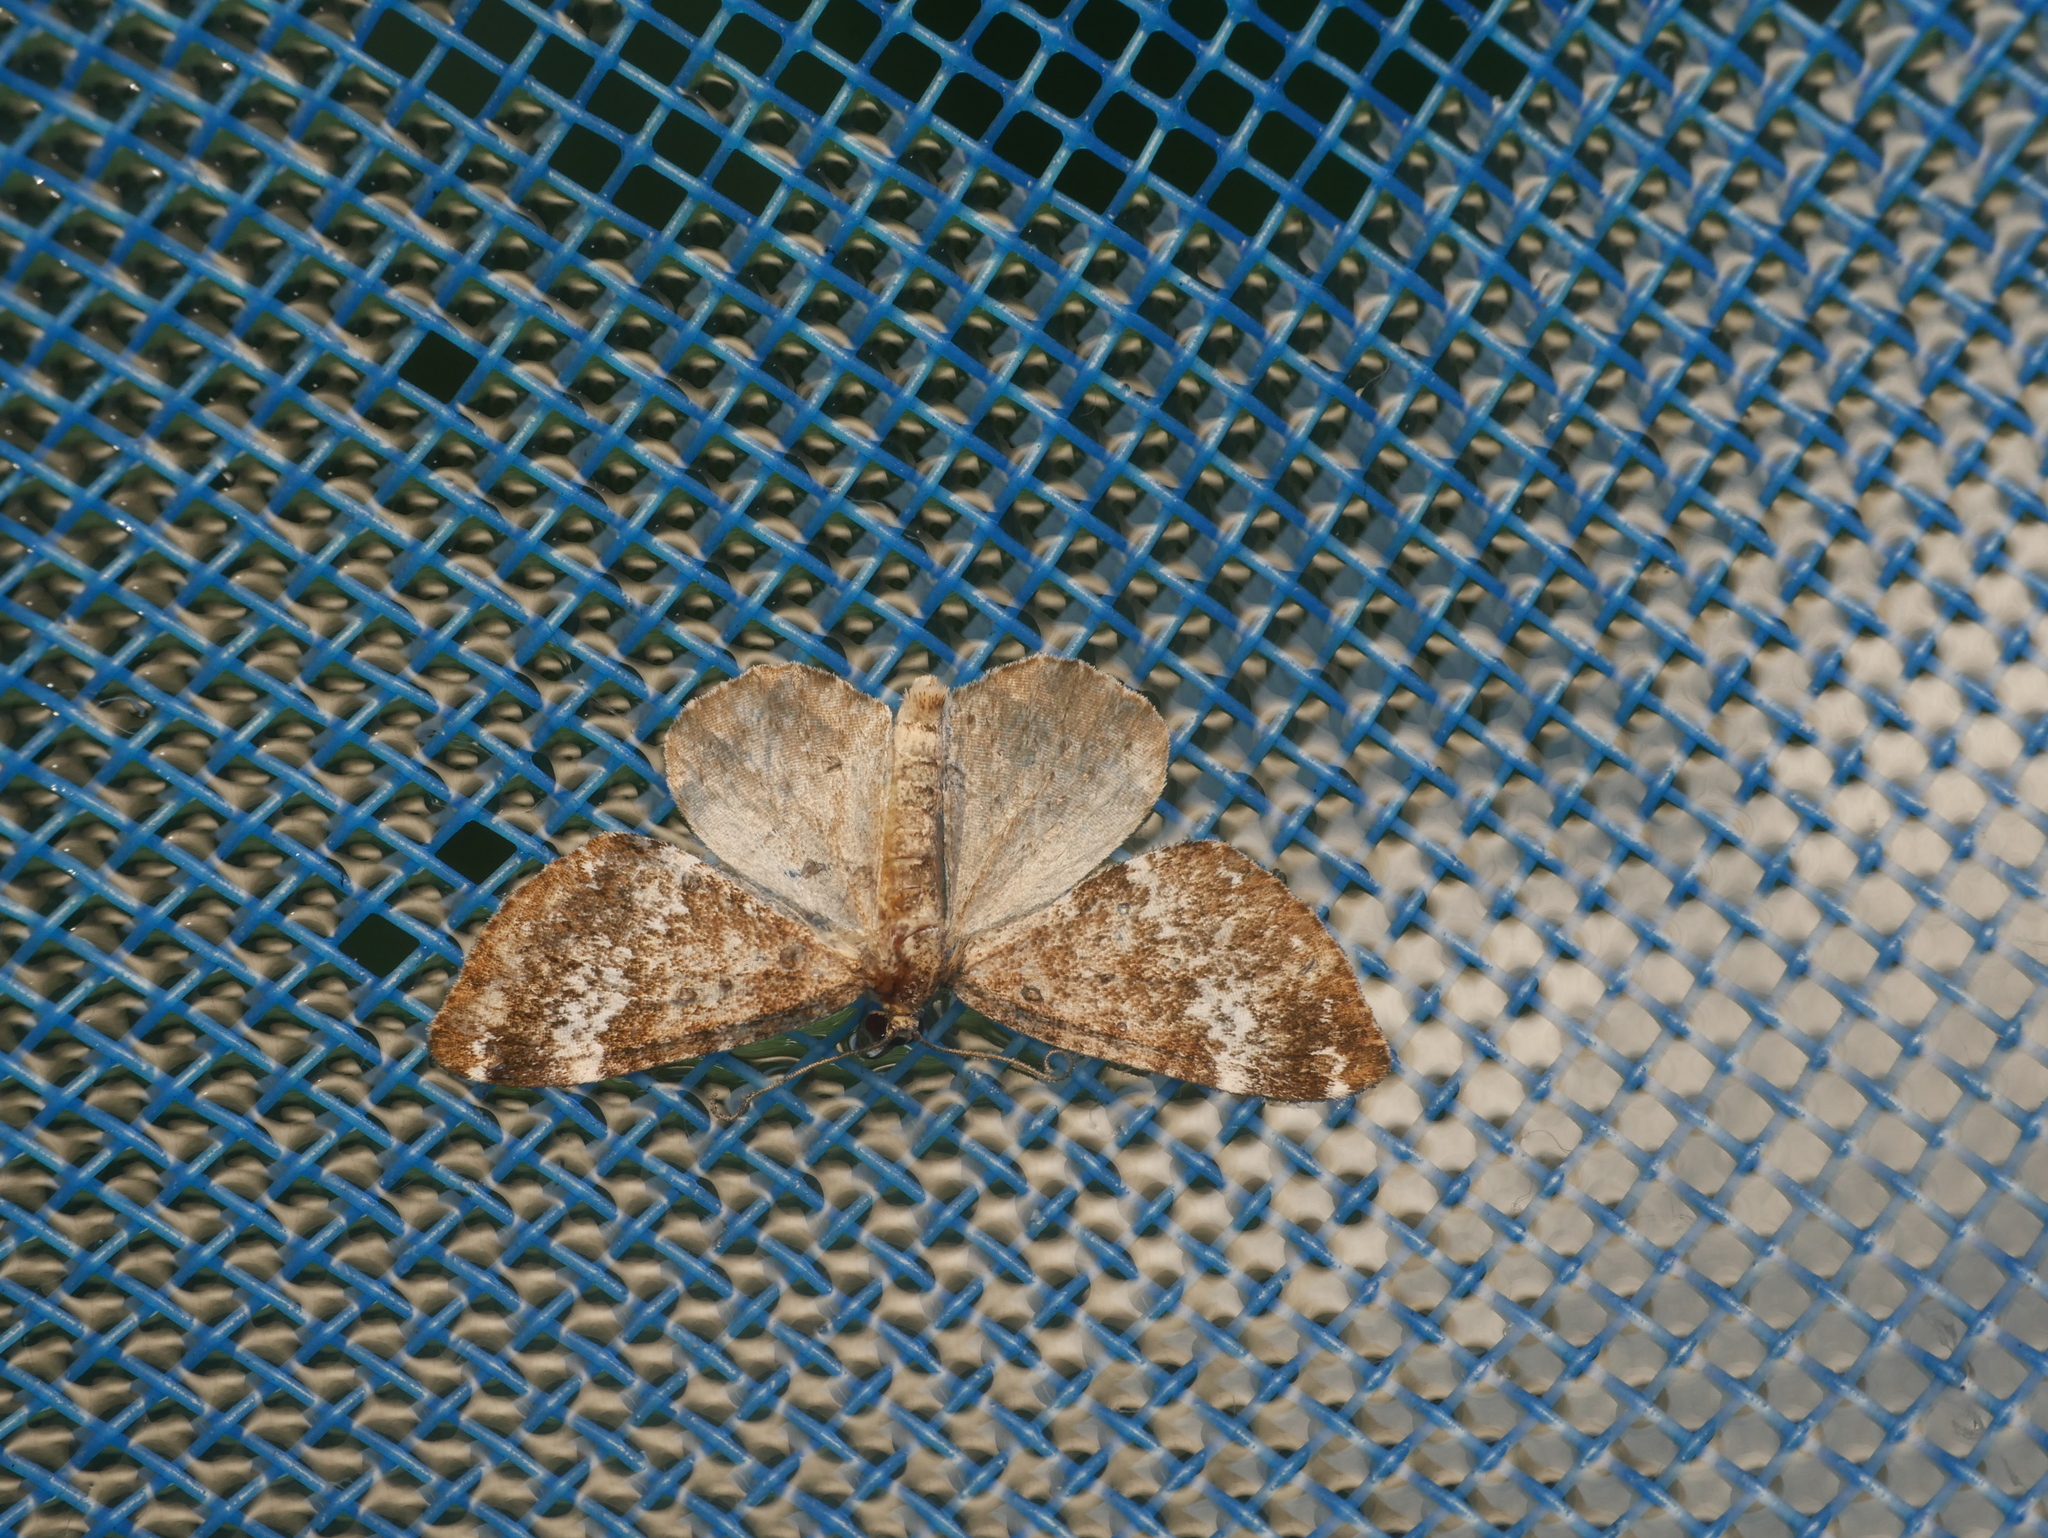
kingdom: Animalia
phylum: Arthropoda
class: Insecta
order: Lepidoptera
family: Geometridae
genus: Perizoma
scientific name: Perizoma alchemillata
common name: Small rivulet
